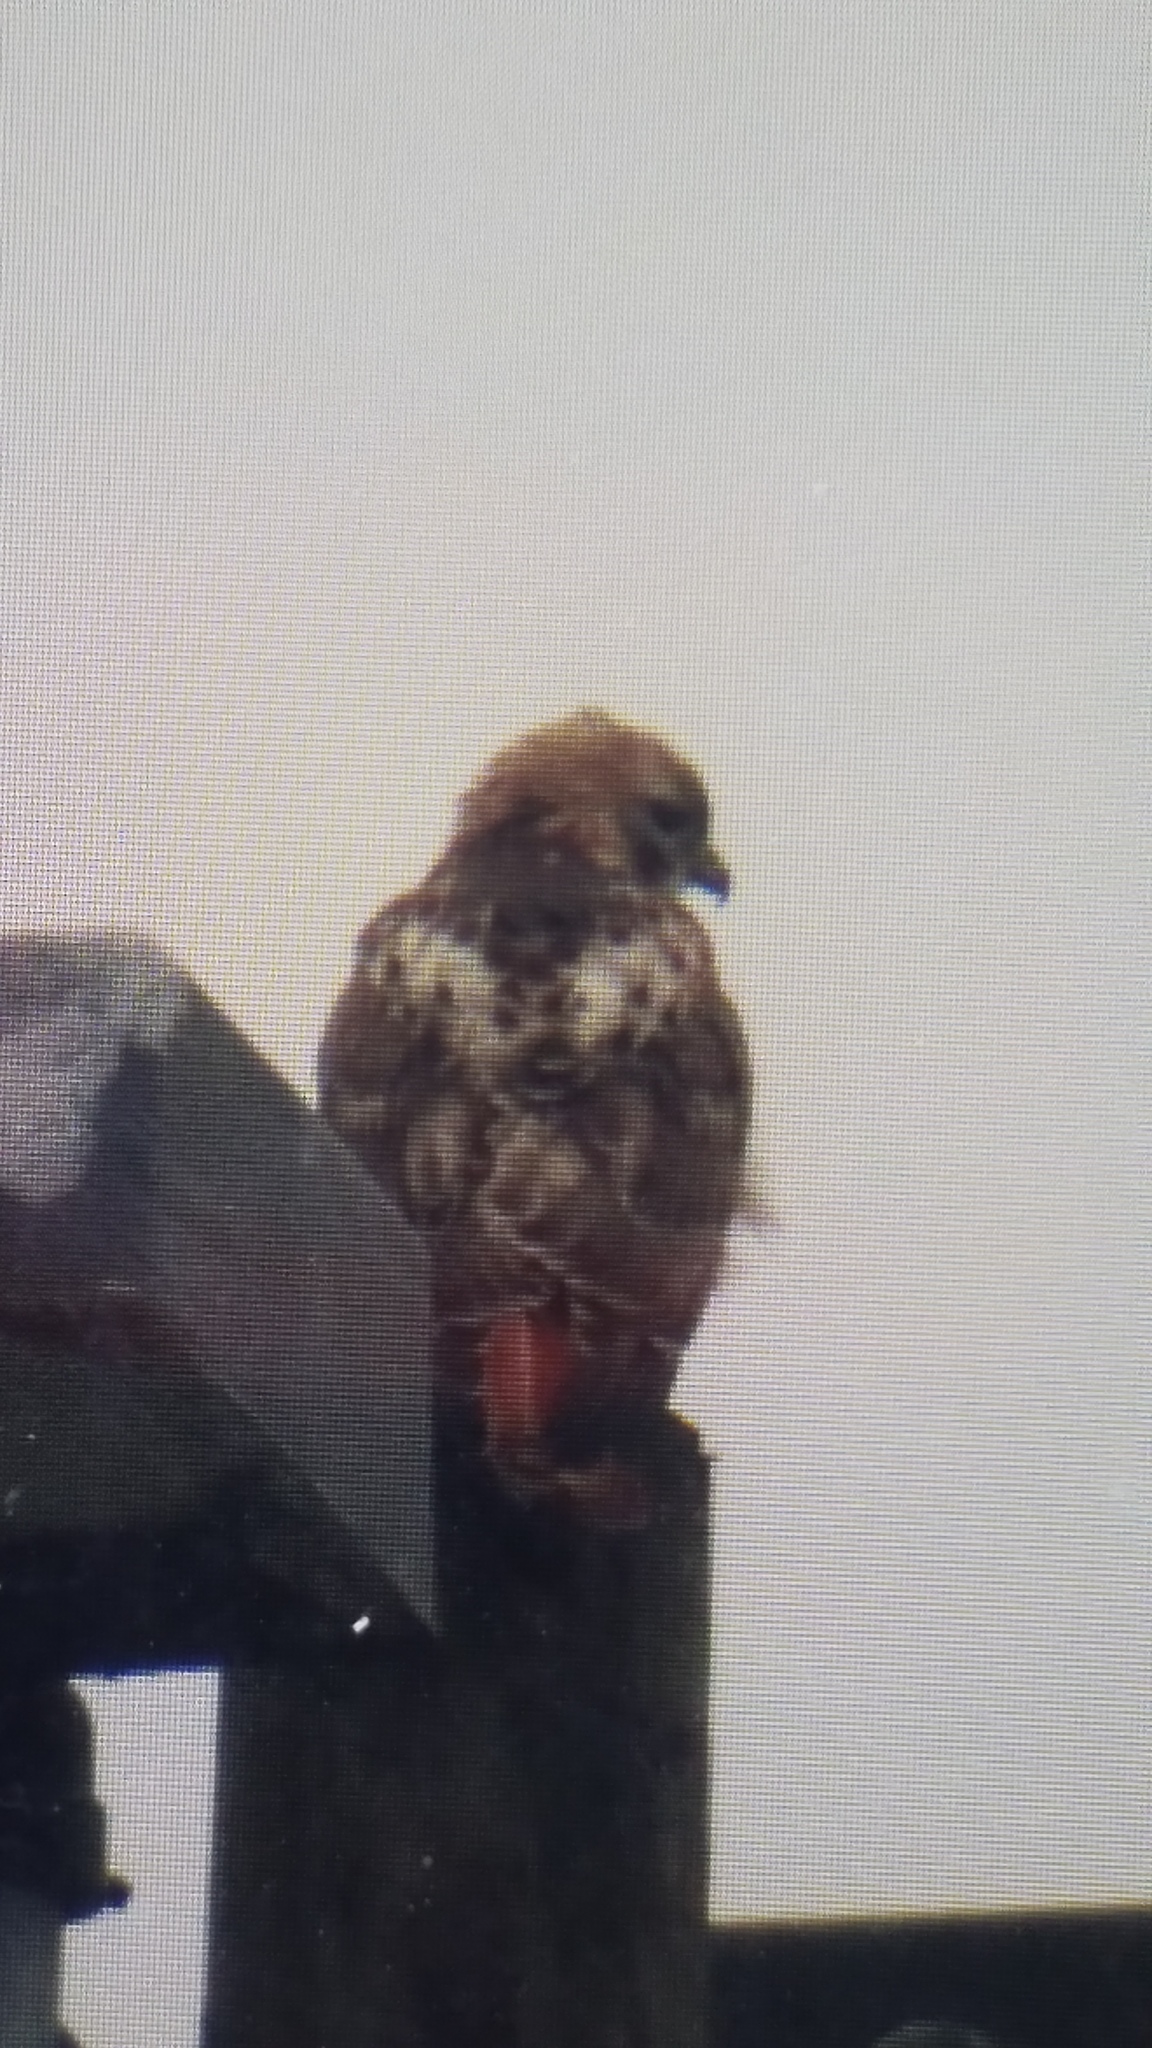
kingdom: Animalia
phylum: Chordata
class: Aves
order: Accipitriformes
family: Accipitridae
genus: Buteo
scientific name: Buteo jamaicensis
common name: Red-tailed hawk
